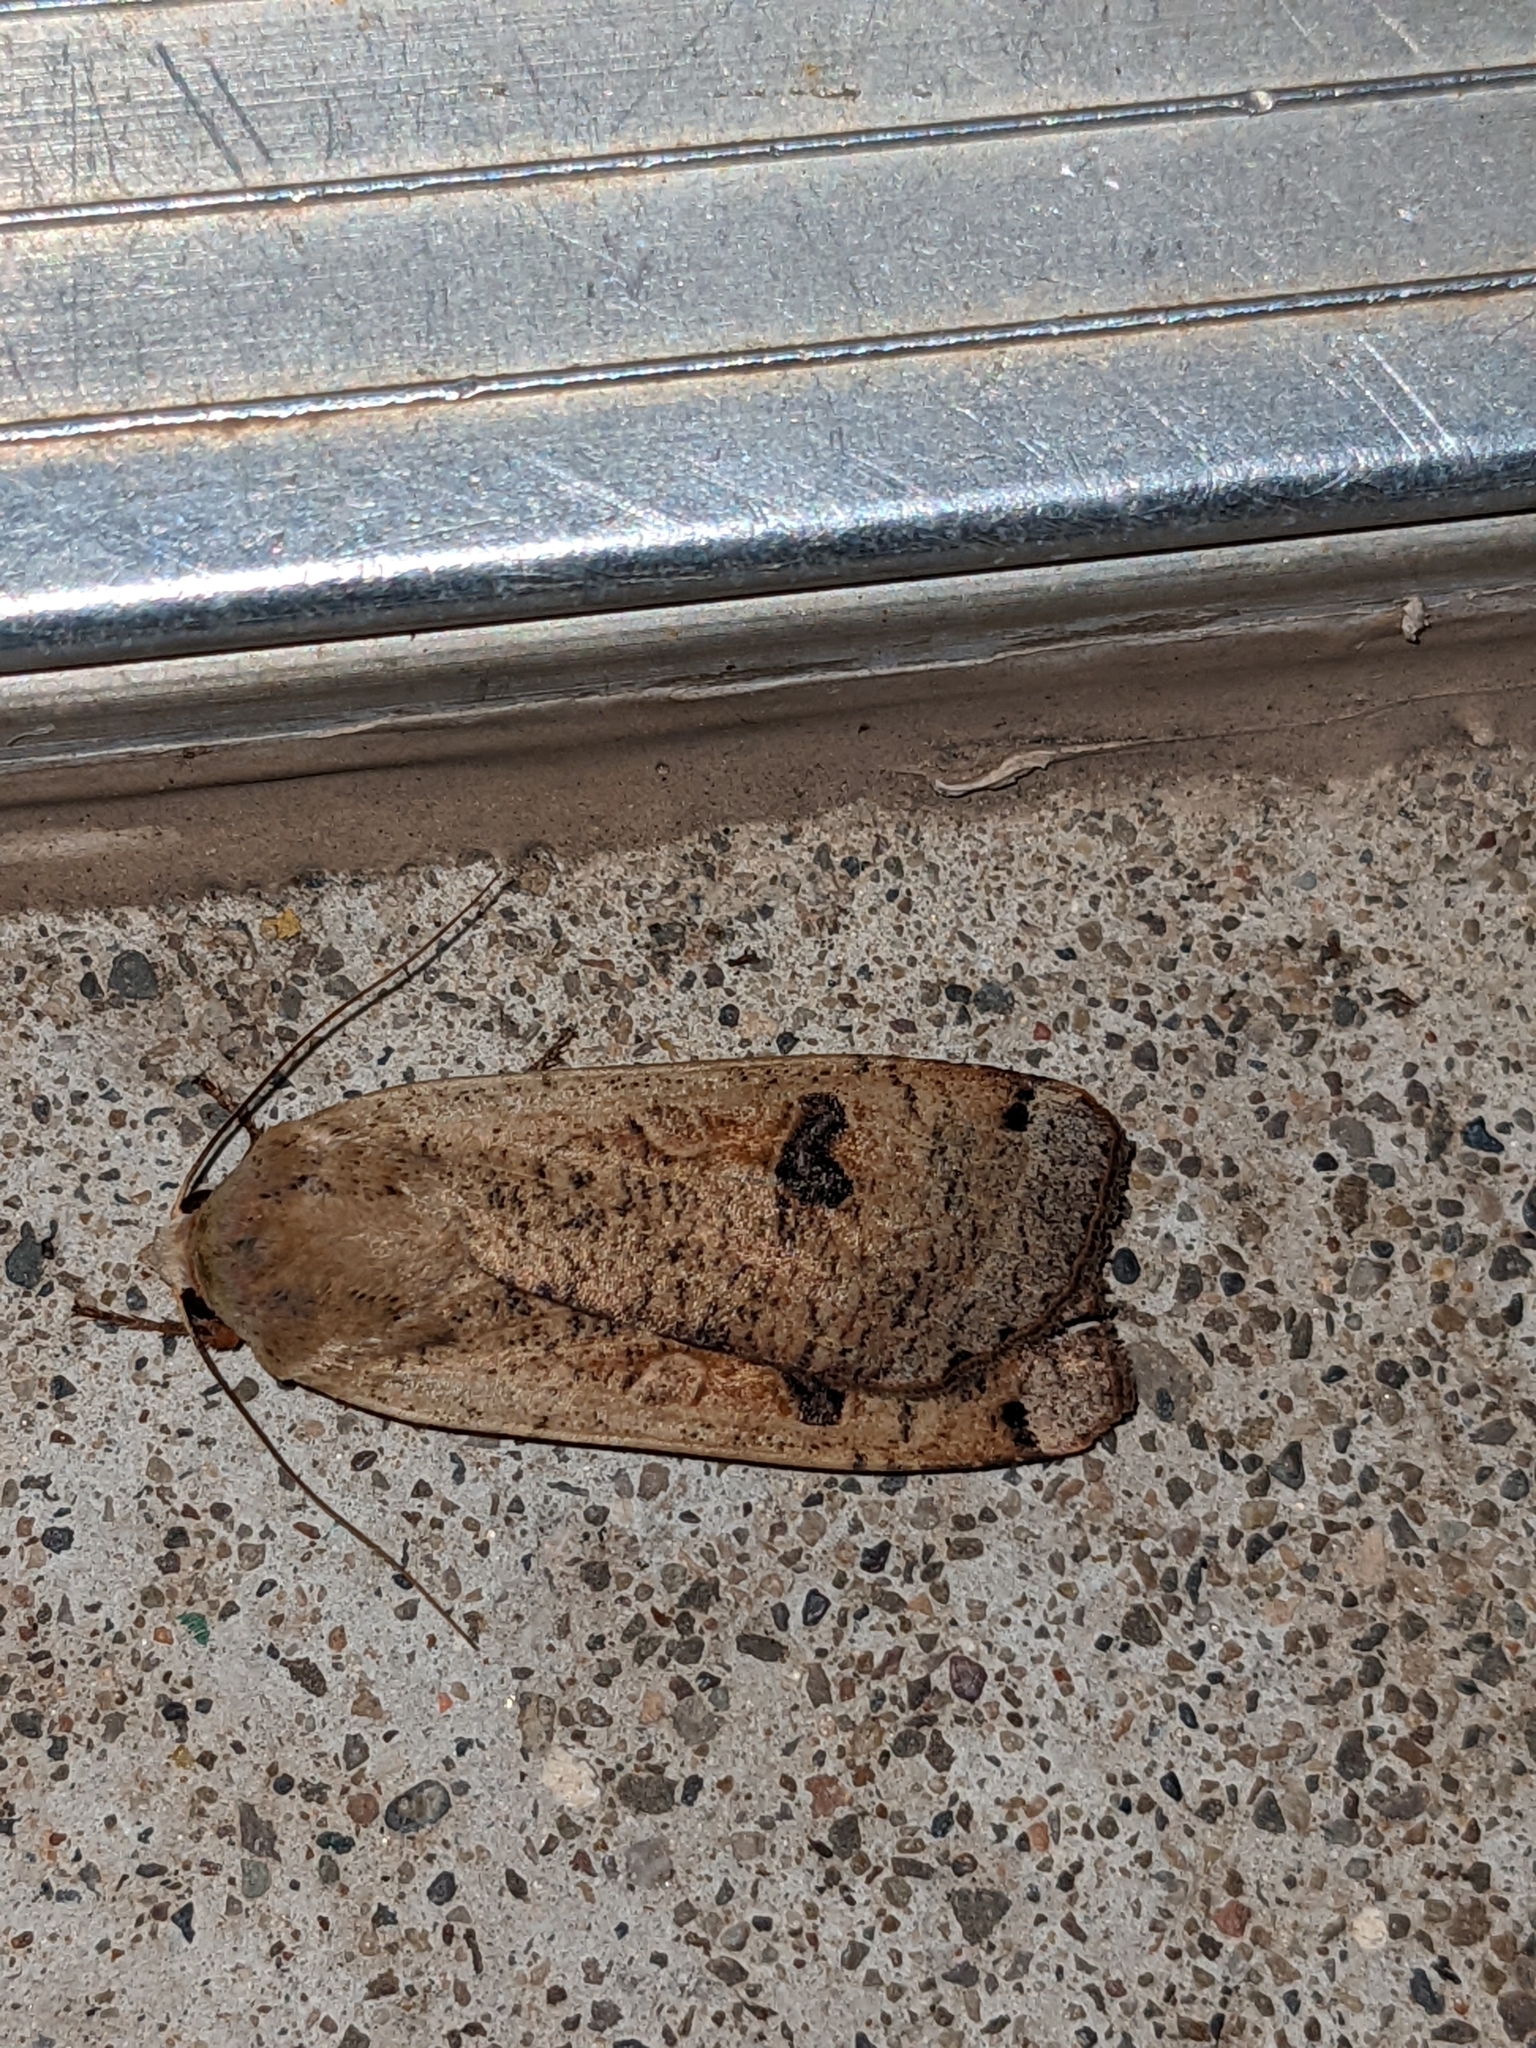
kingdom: Animalia
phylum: Arthropoda
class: Insecta
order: Lepidoptera
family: Noctuidae
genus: Noctua
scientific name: Noctua pronuba
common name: Large yellow underwing
